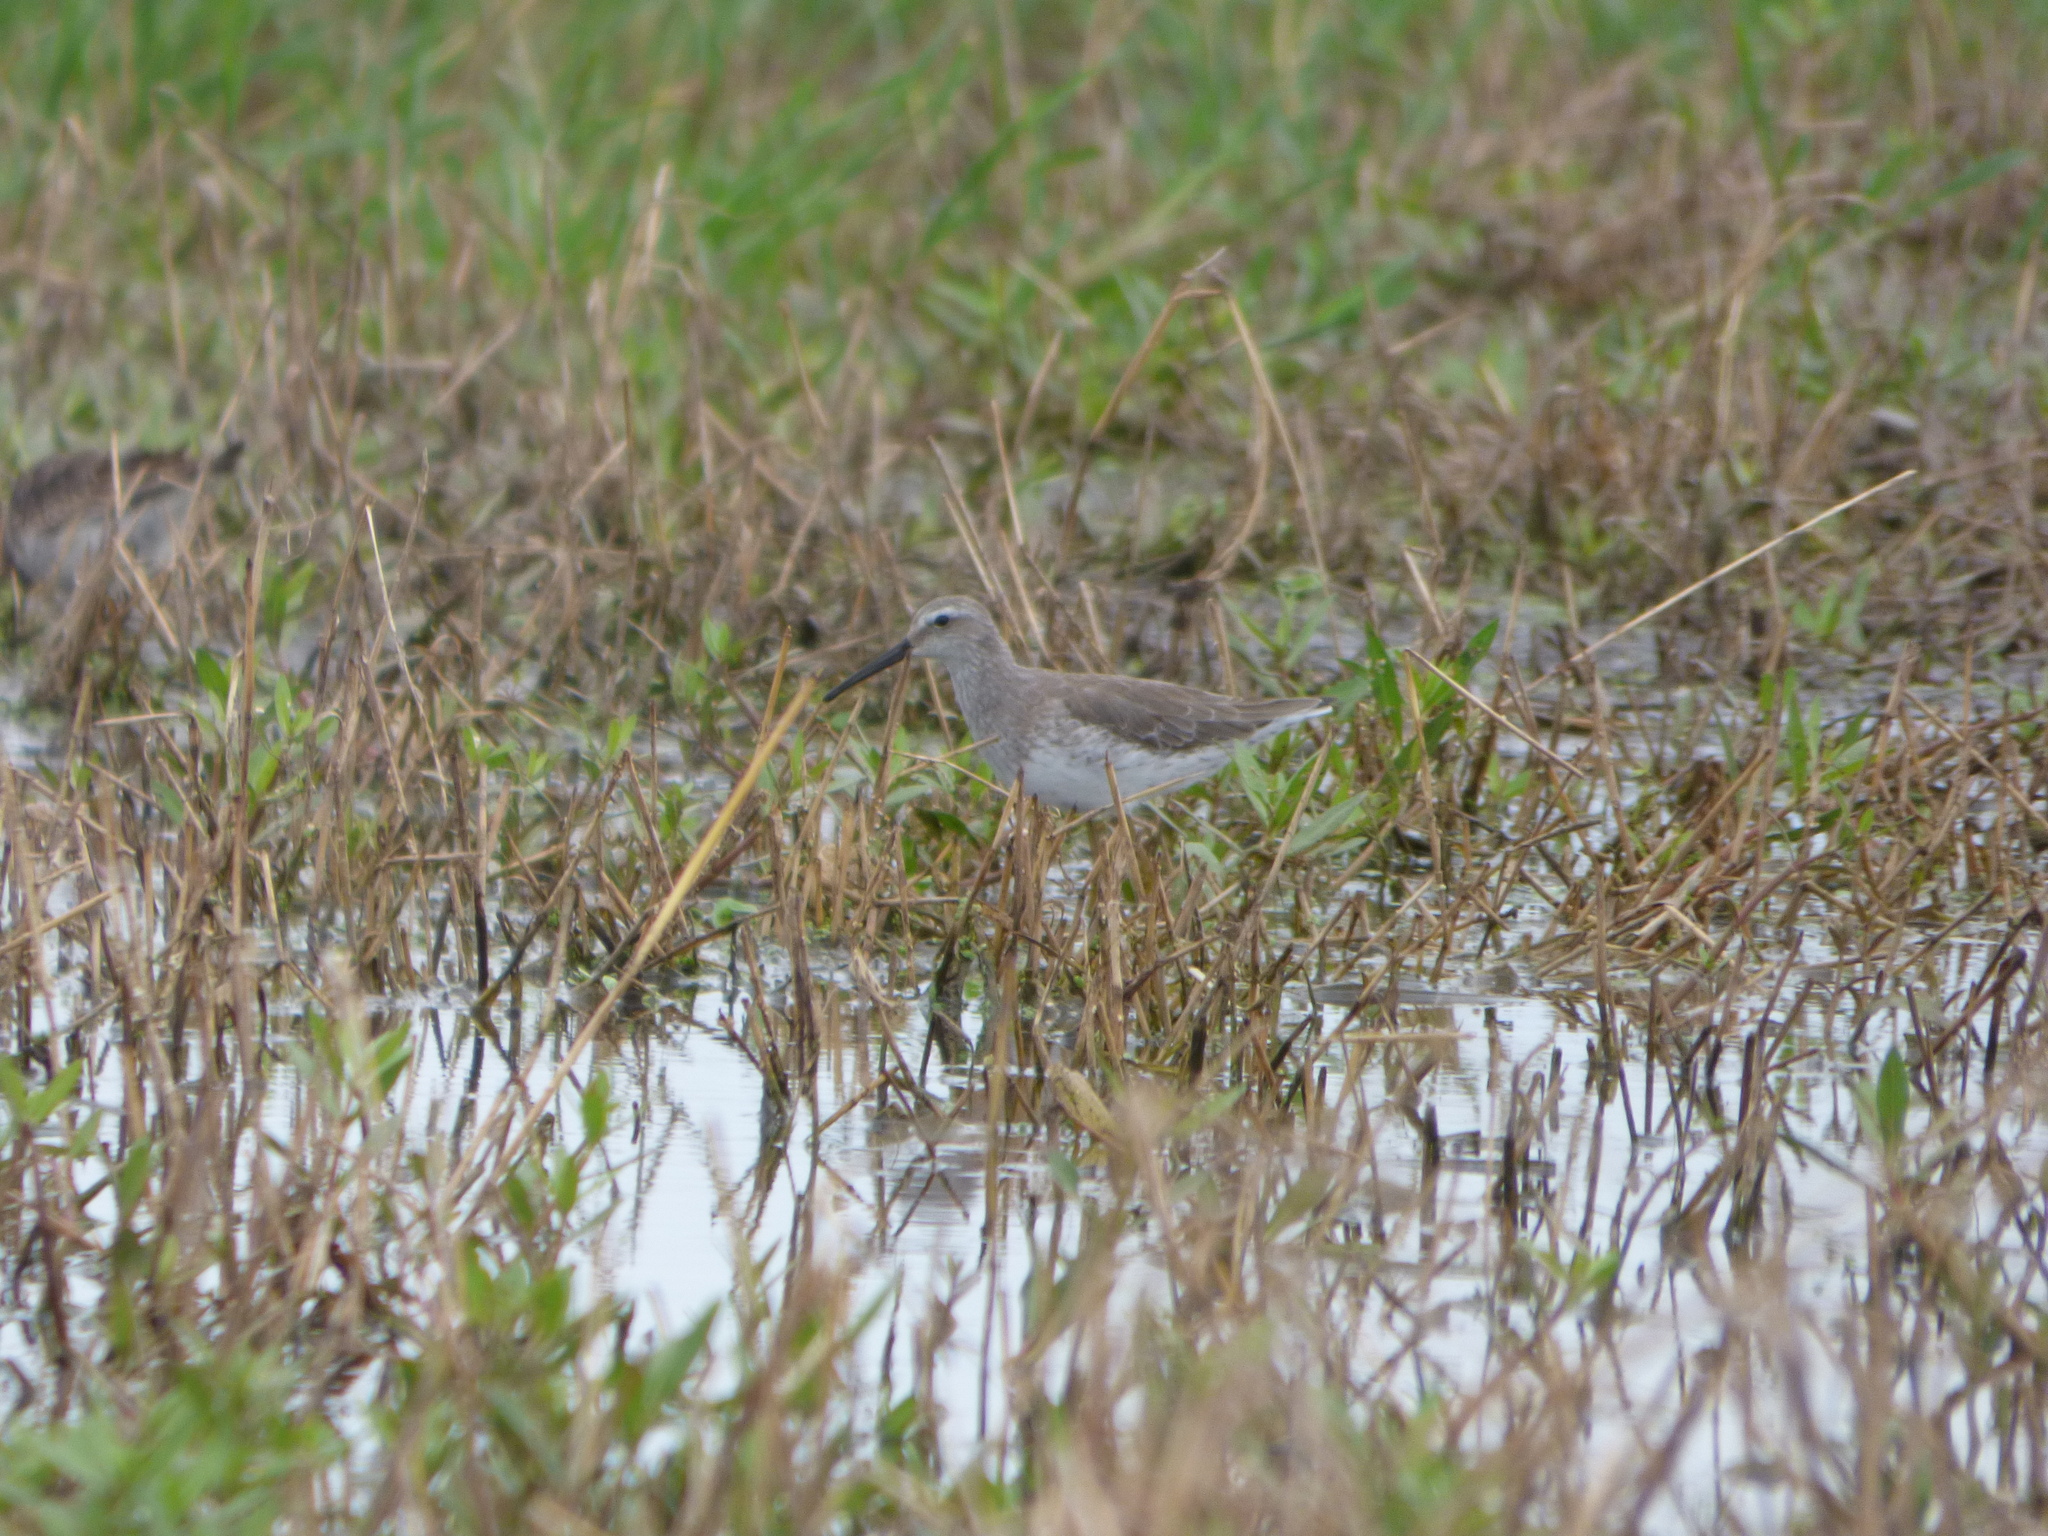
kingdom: Animalia
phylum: Chordata
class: Aves
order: Charadriiformes
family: Scolopacidae
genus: Calidris
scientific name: Calidris himantopus
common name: Stilt sandpiper
